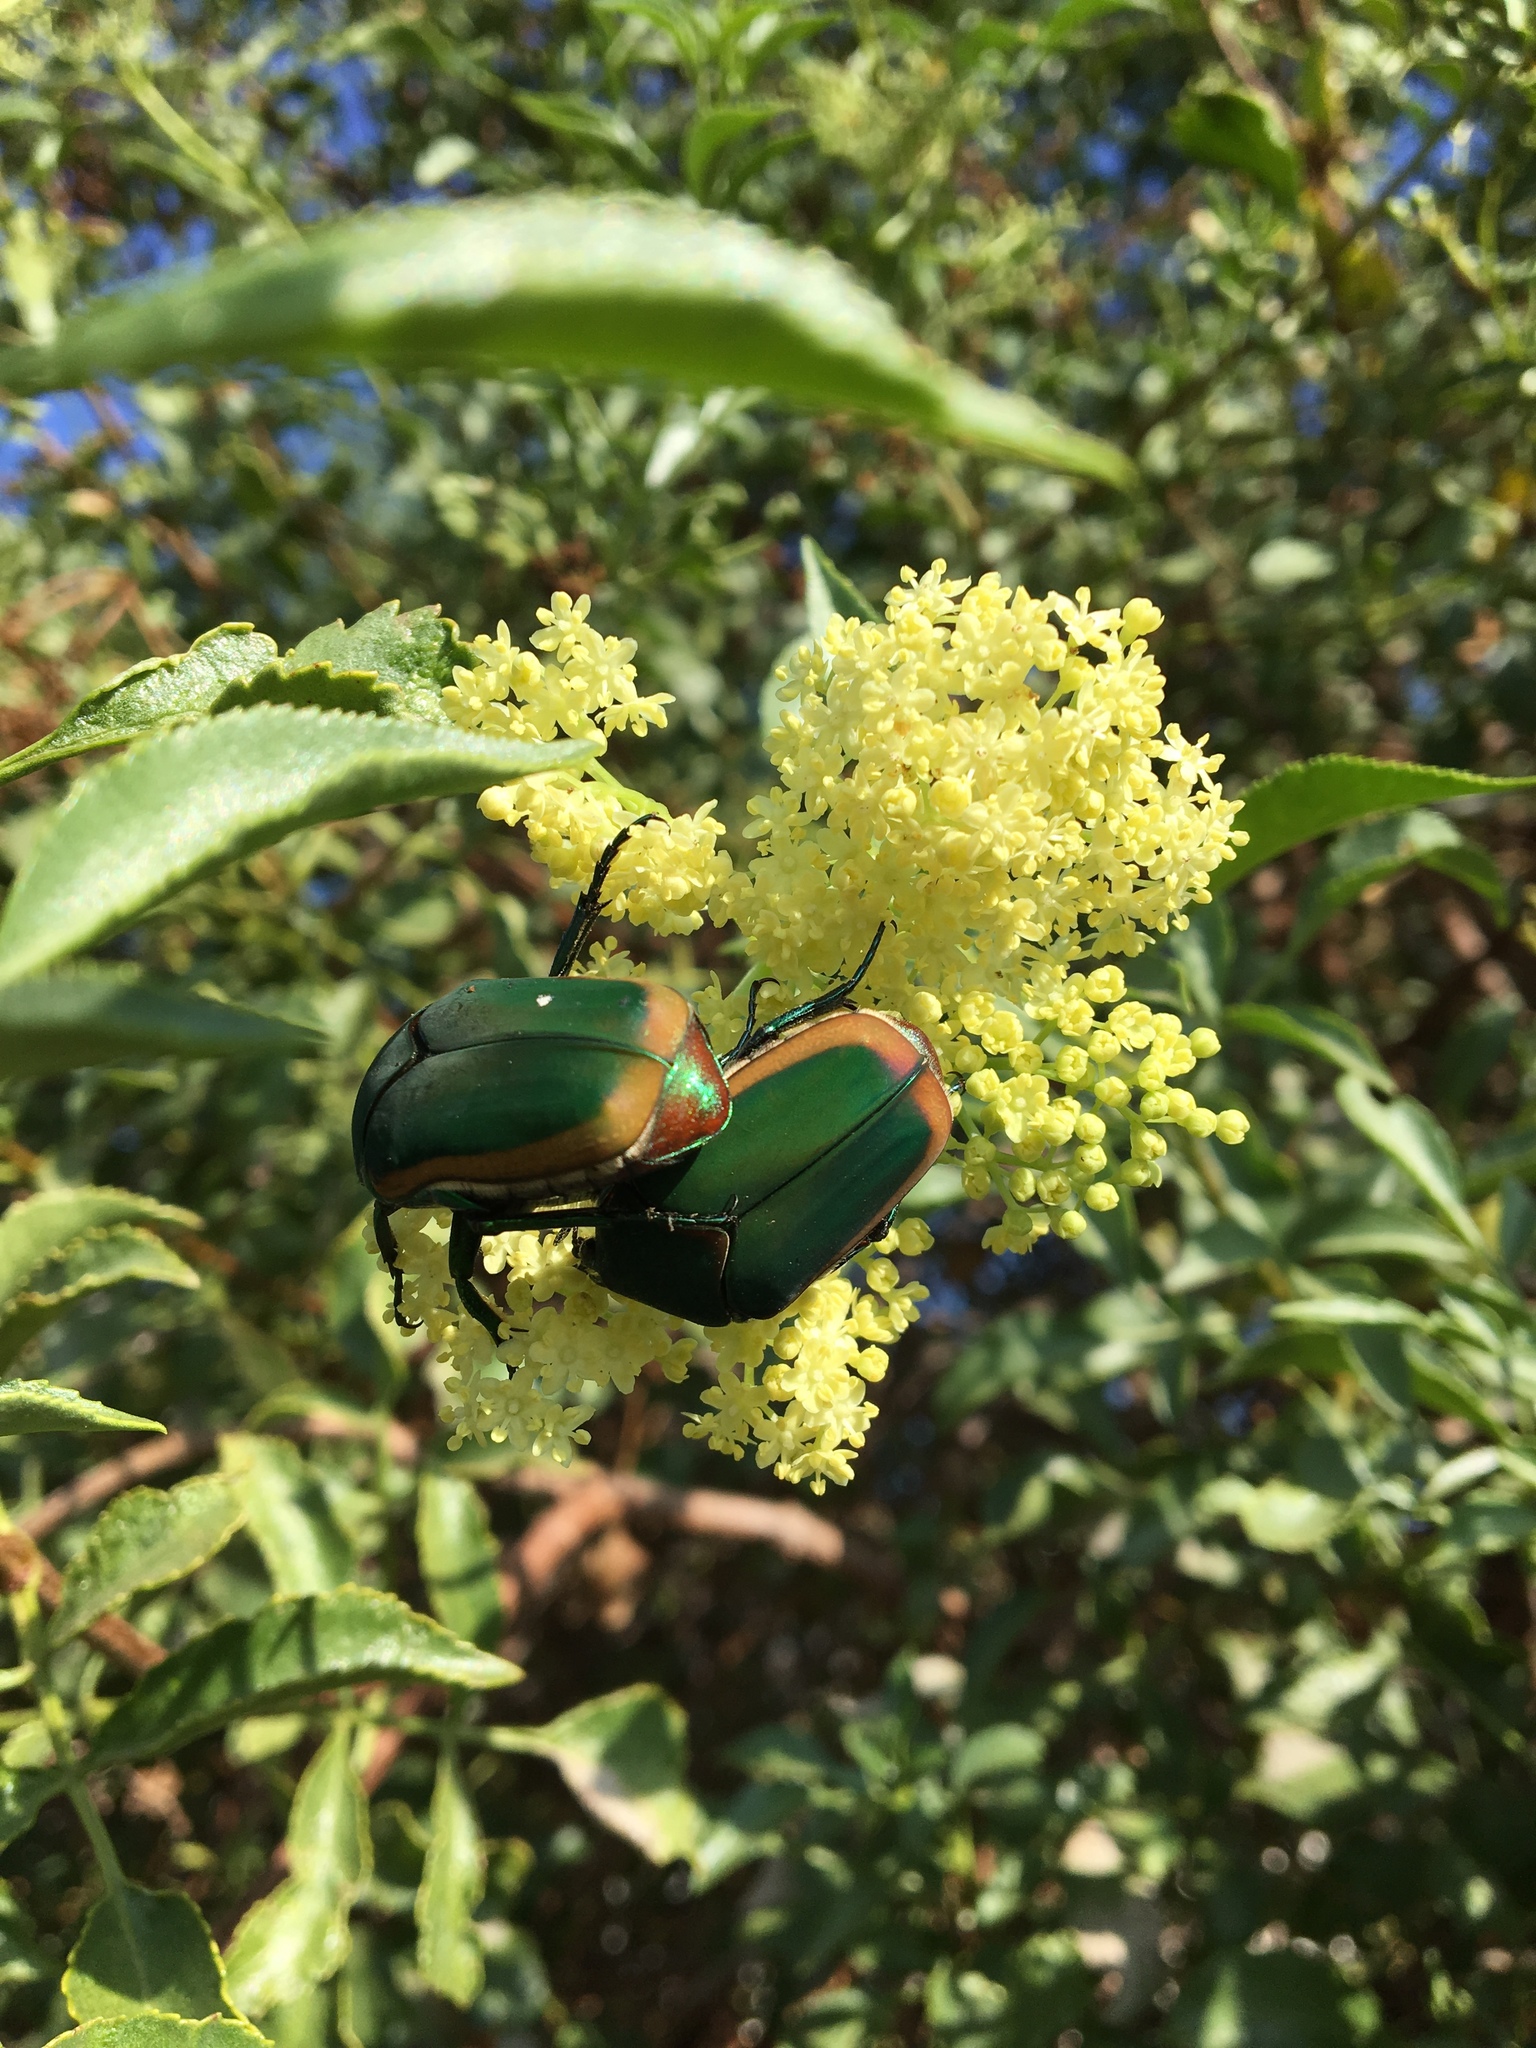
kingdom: Animalia
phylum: Arthropoda
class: Insecta
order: Coleoptera
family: Scarabaeidae
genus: Cotinis
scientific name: Cotinis mutabilis
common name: Figeater beetle
